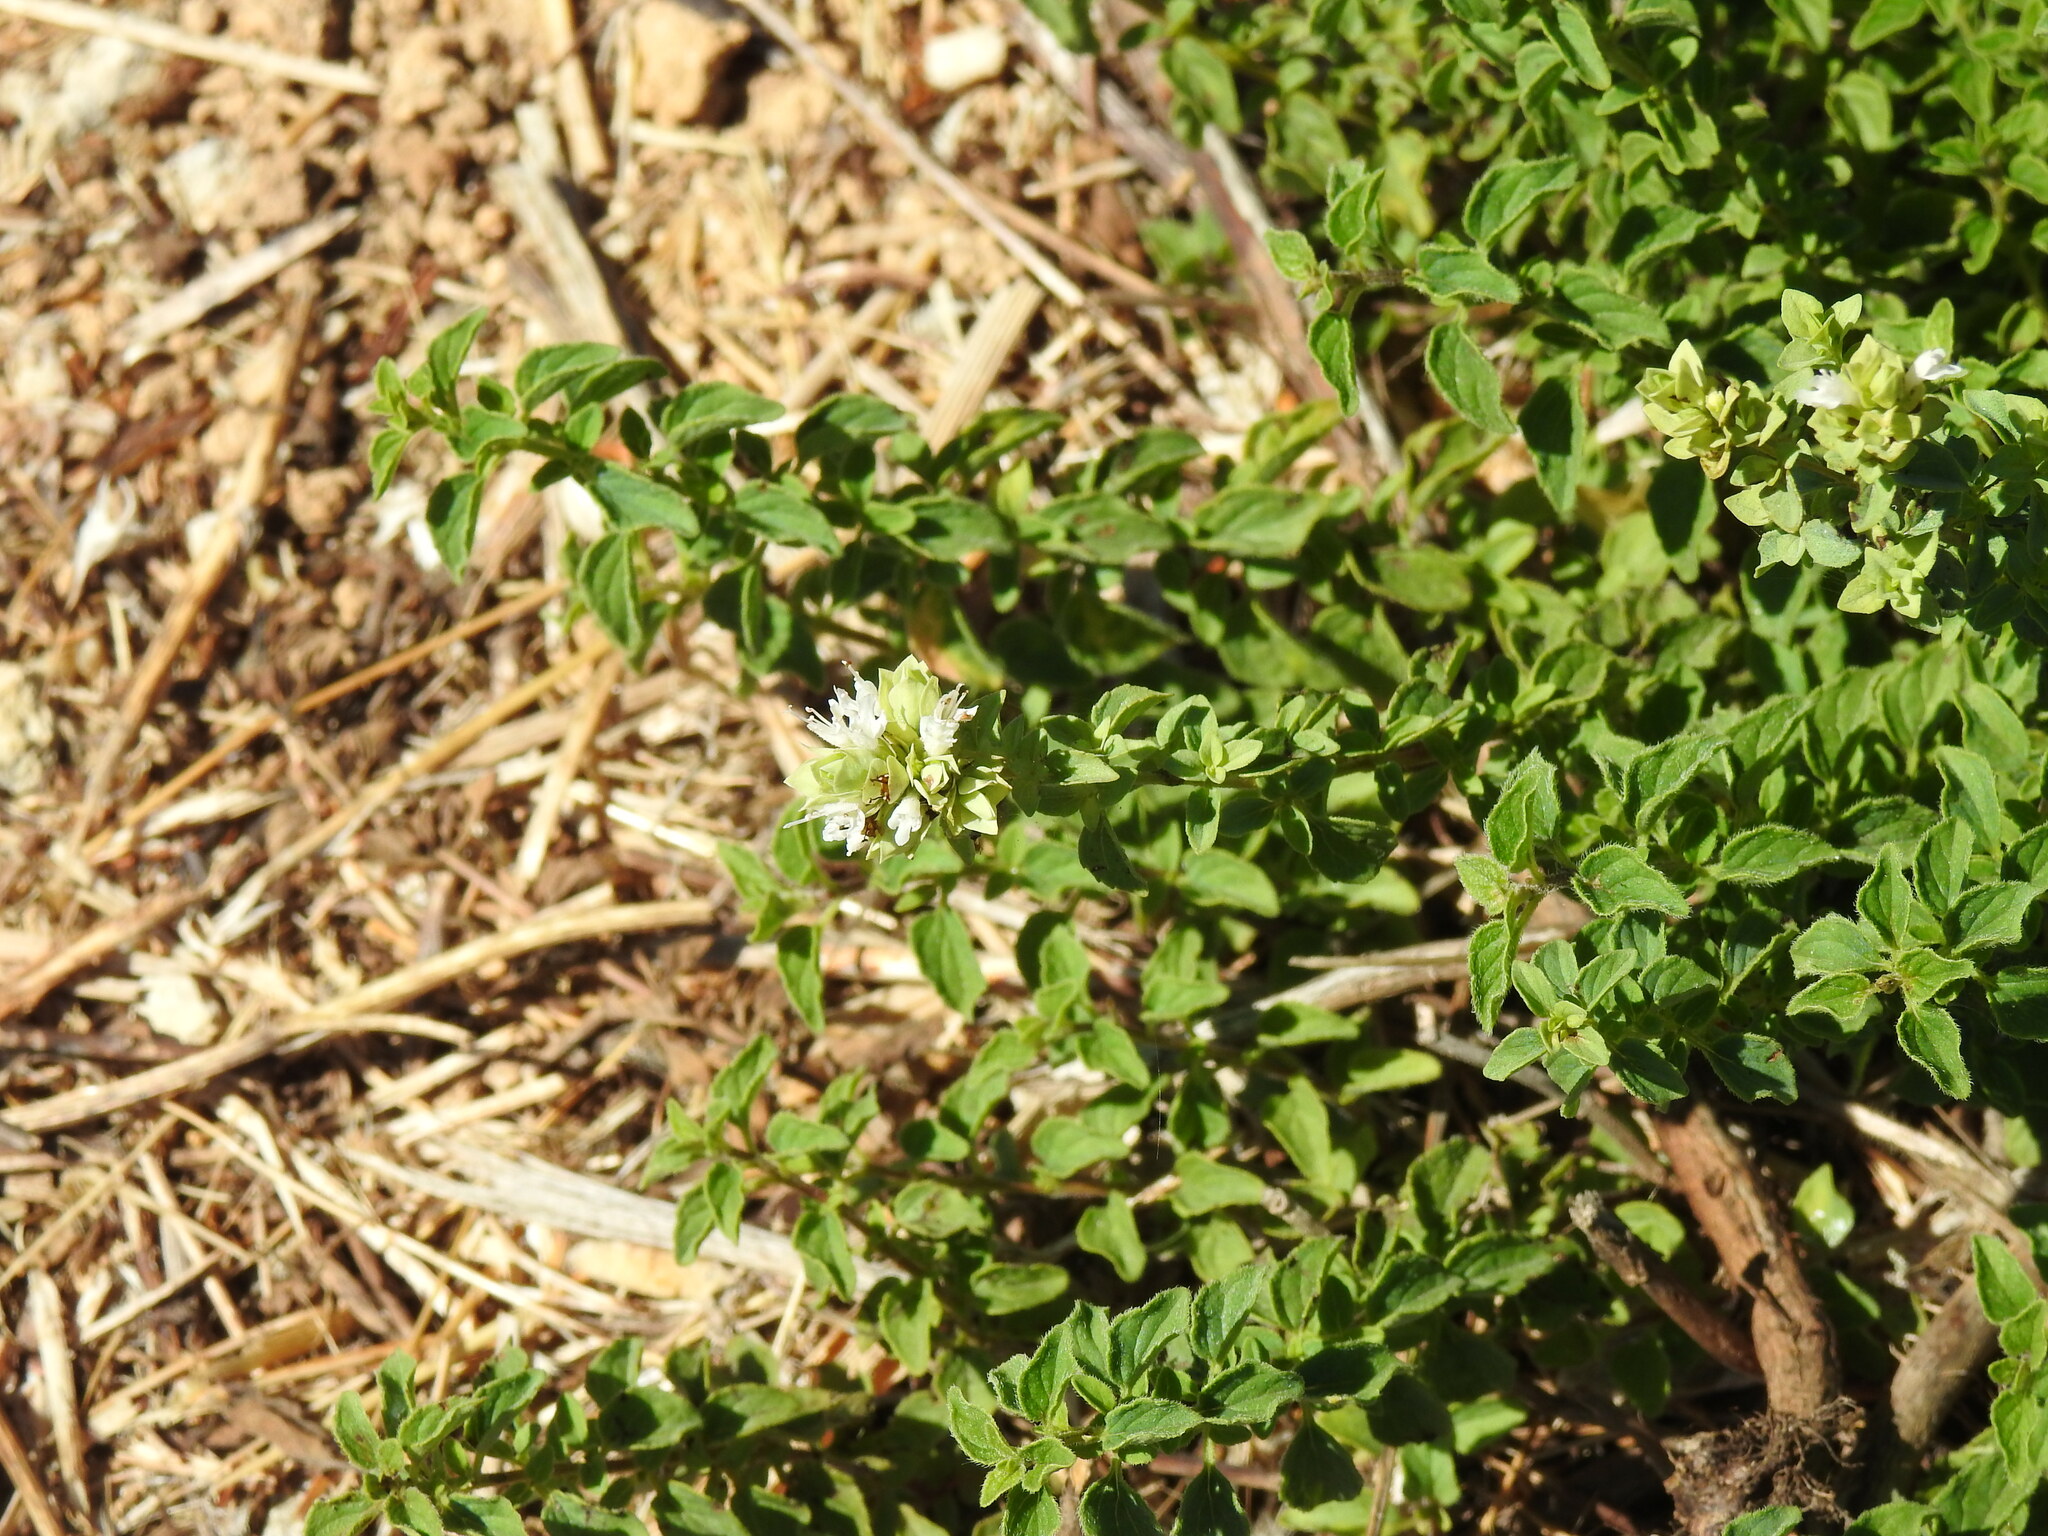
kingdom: Plantae
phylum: Tracheophyta
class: Magnoliopsida
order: Lamiales
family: Lamiaceae
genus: Origanum
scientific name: Origanum vulgare
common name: Wild marjoram
